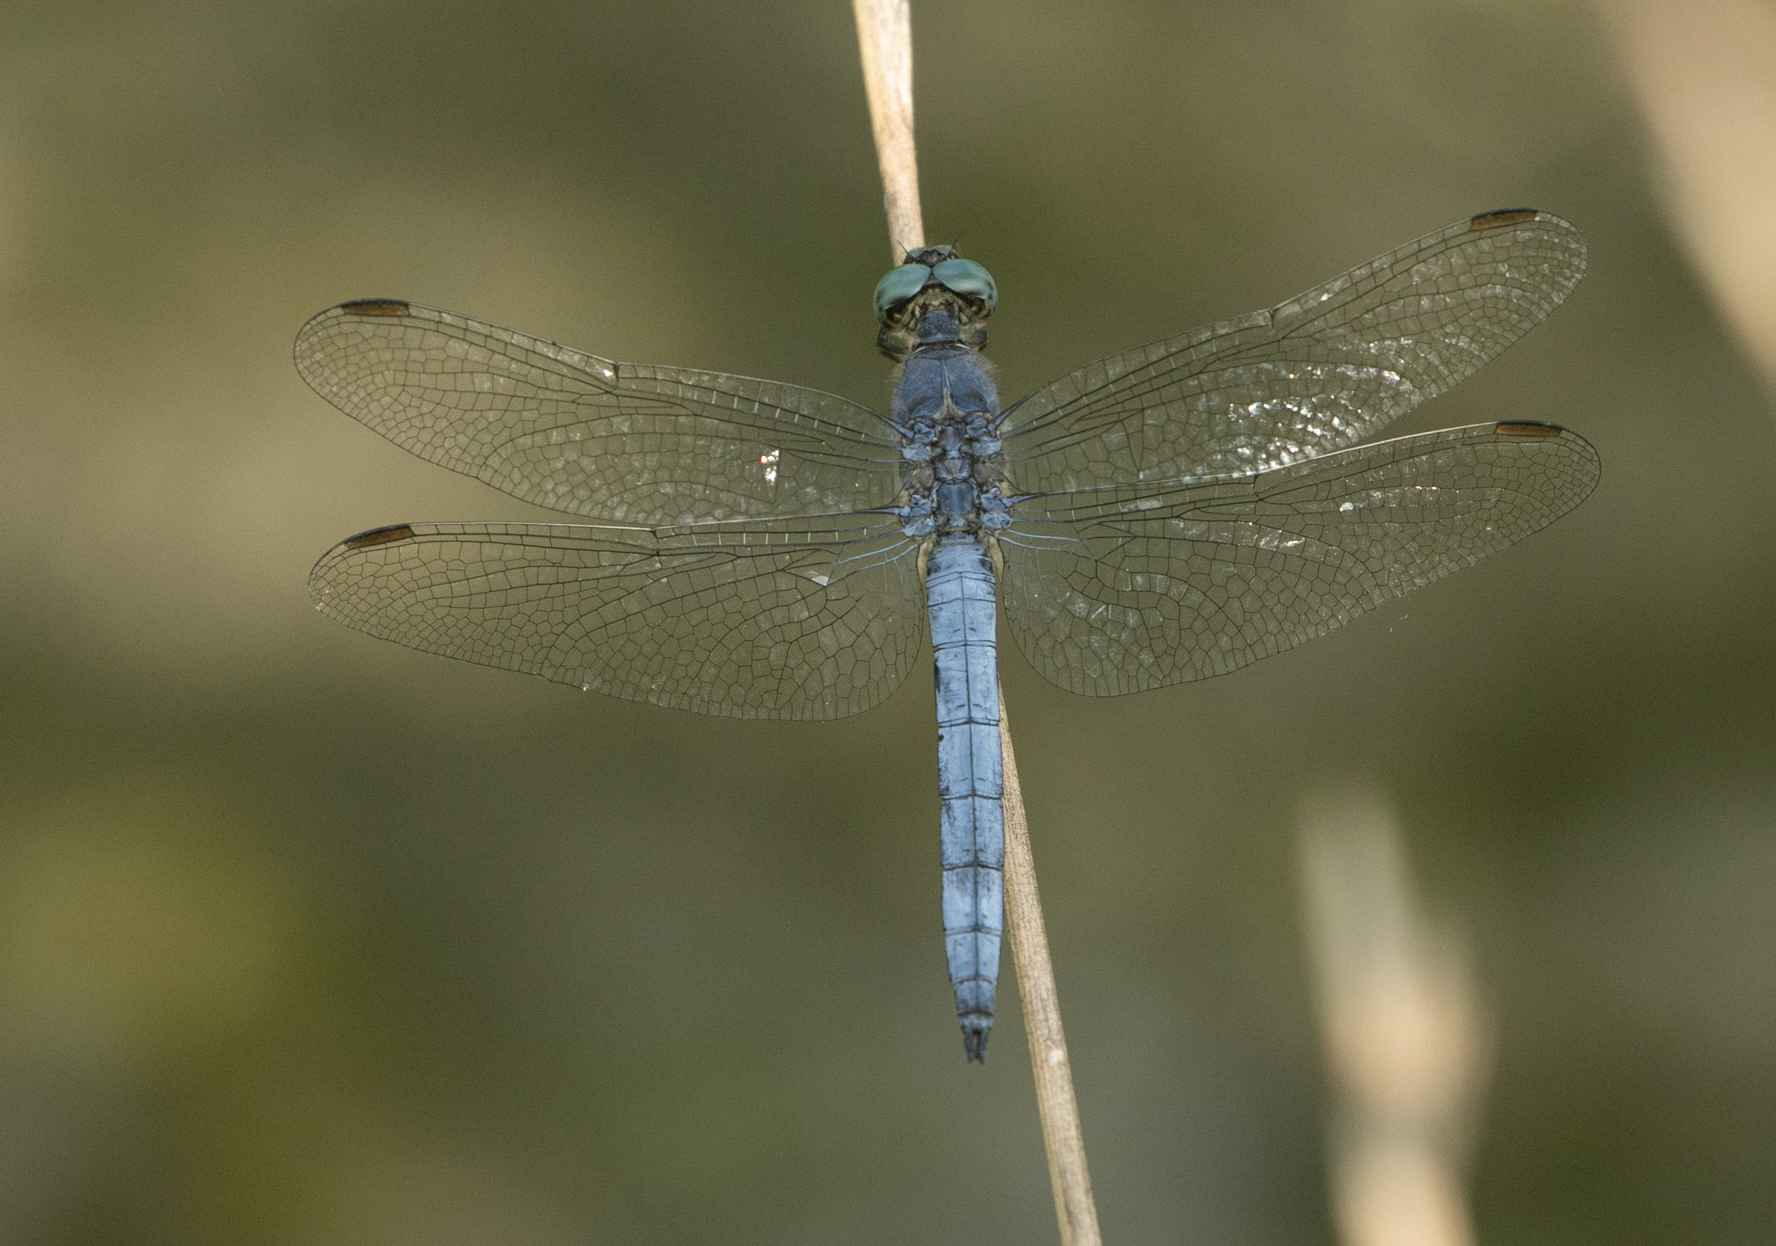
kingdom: Animalia
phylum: Arthropoda
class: Insecta
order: Odonata
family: Libellulidae
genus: Orthetrum
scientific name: Orthetrum coerulescens
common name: Keeled skimmer
